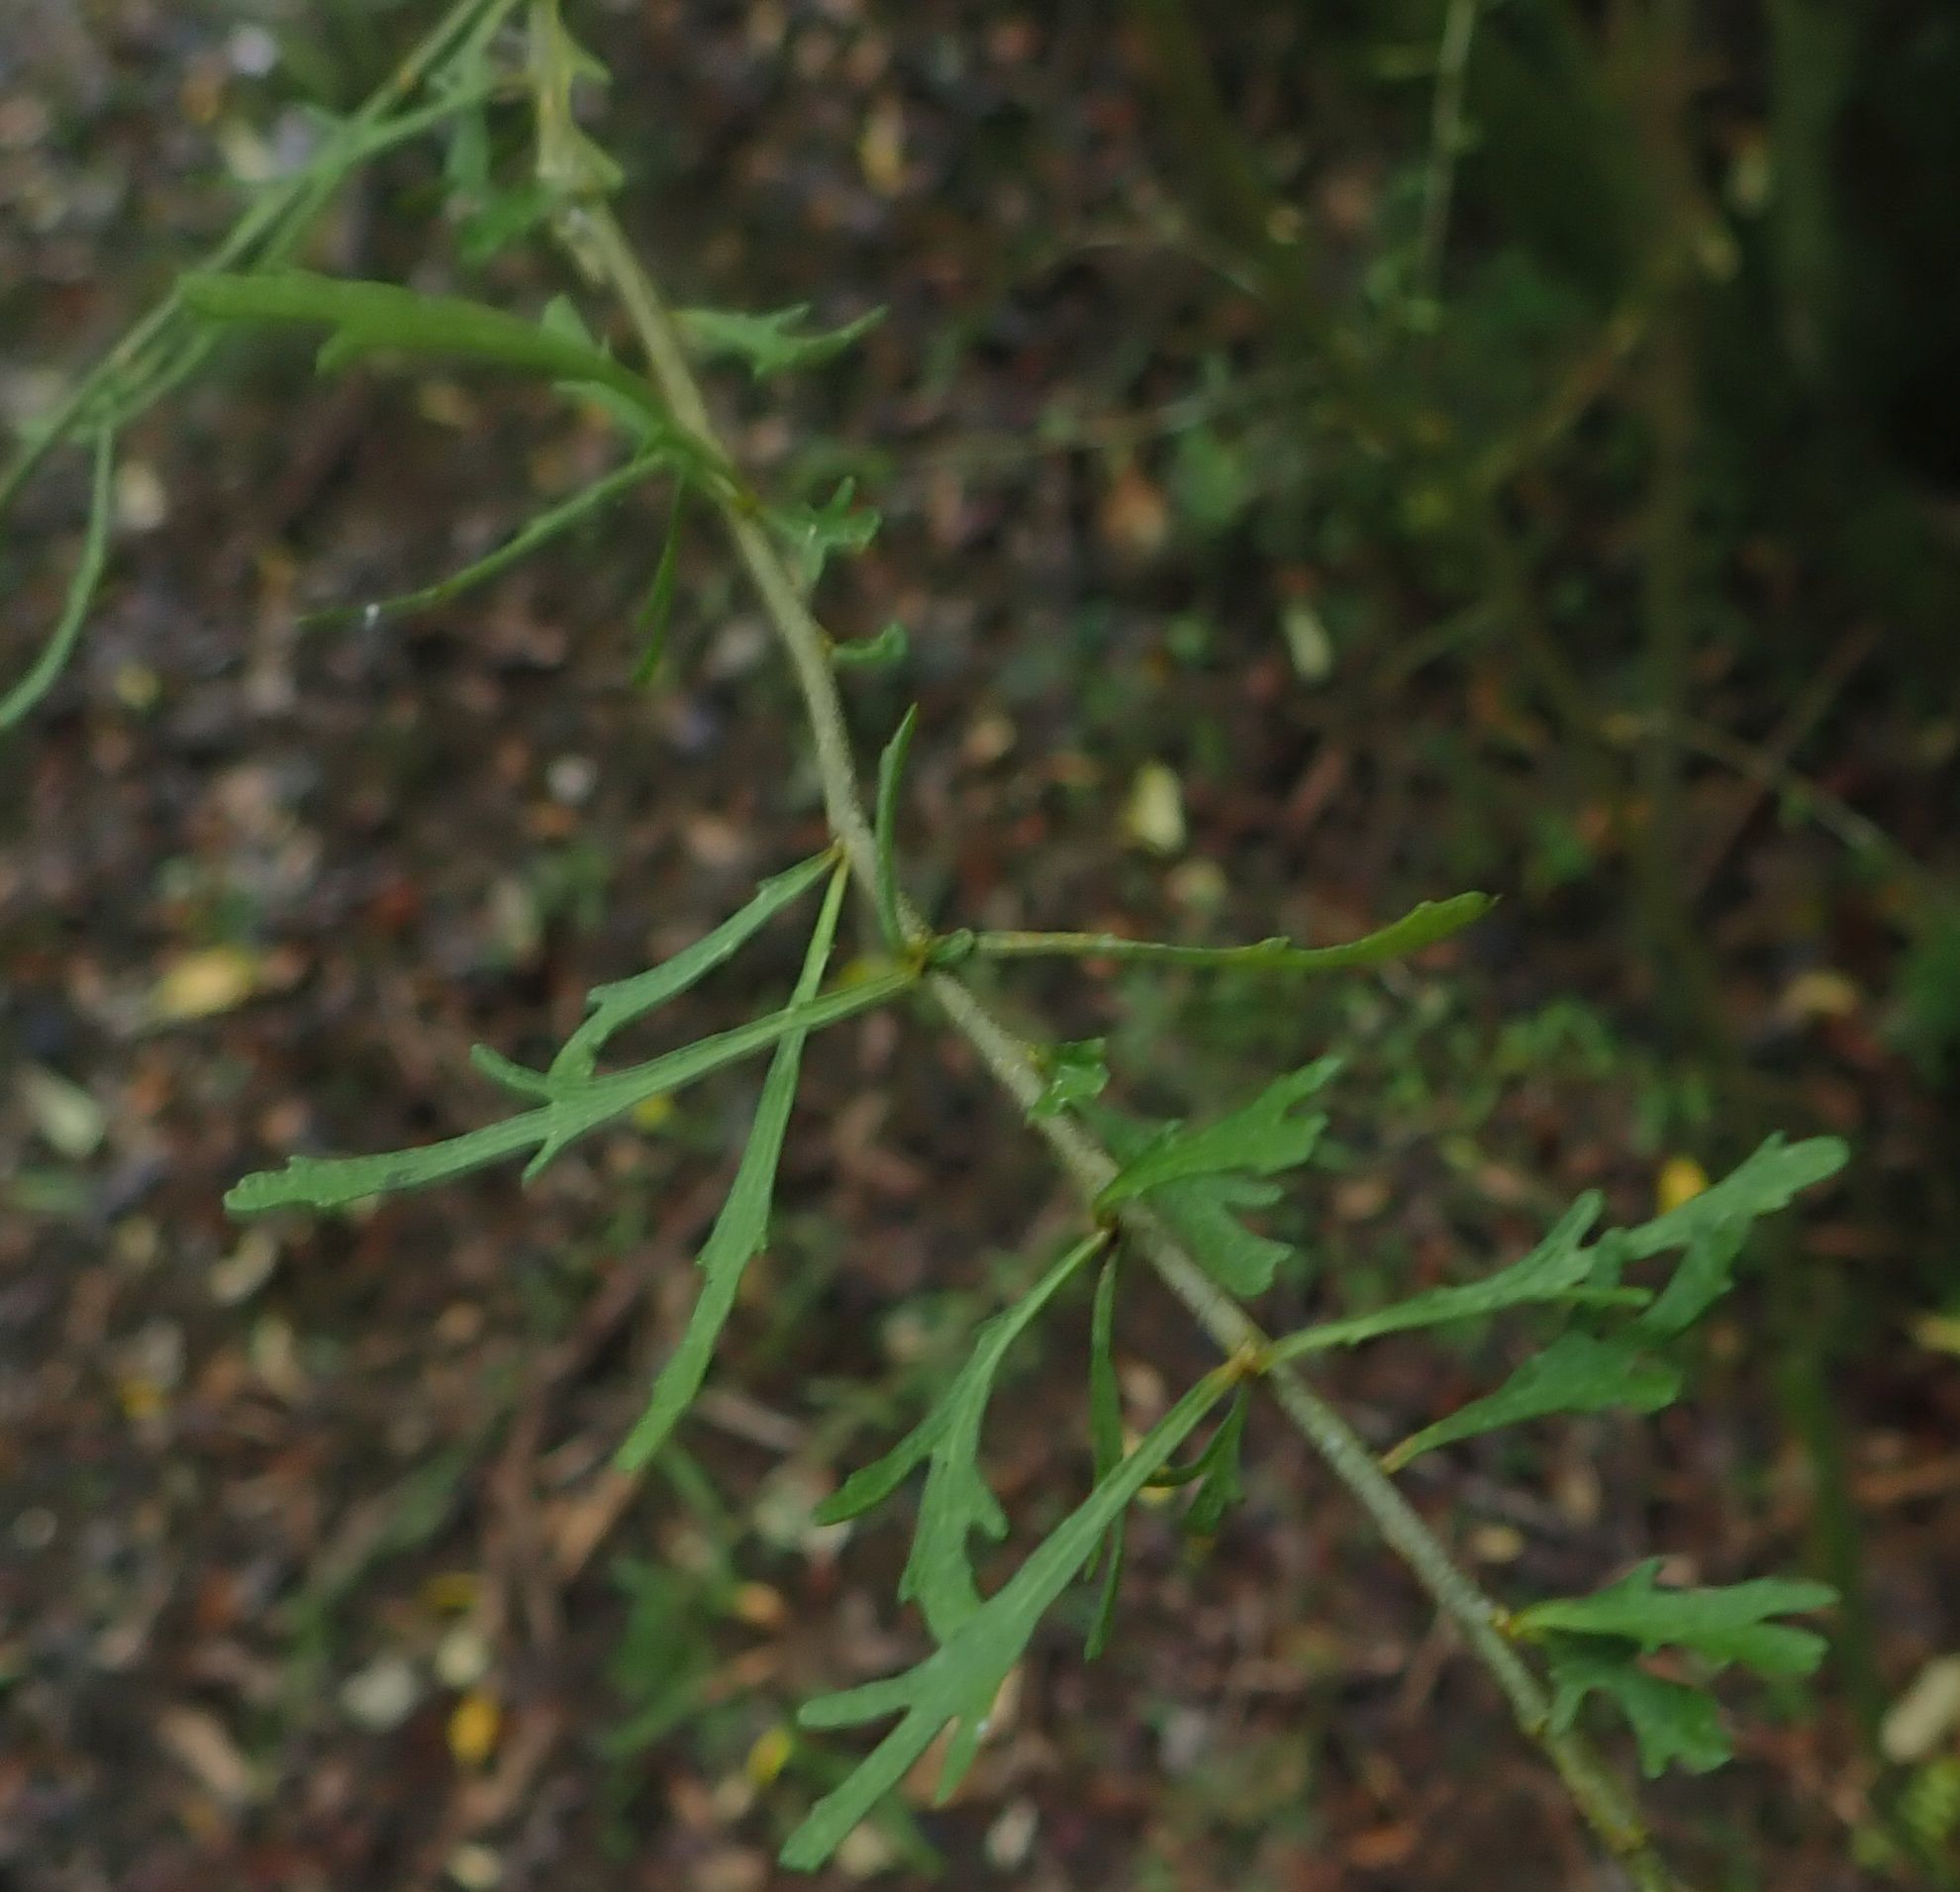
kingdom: Plantae
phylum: Tracheophyta
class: Magnoliopsida
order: Malpighiales
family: Violaceae
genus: Melicytus
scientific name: Melicytus flexuosus
